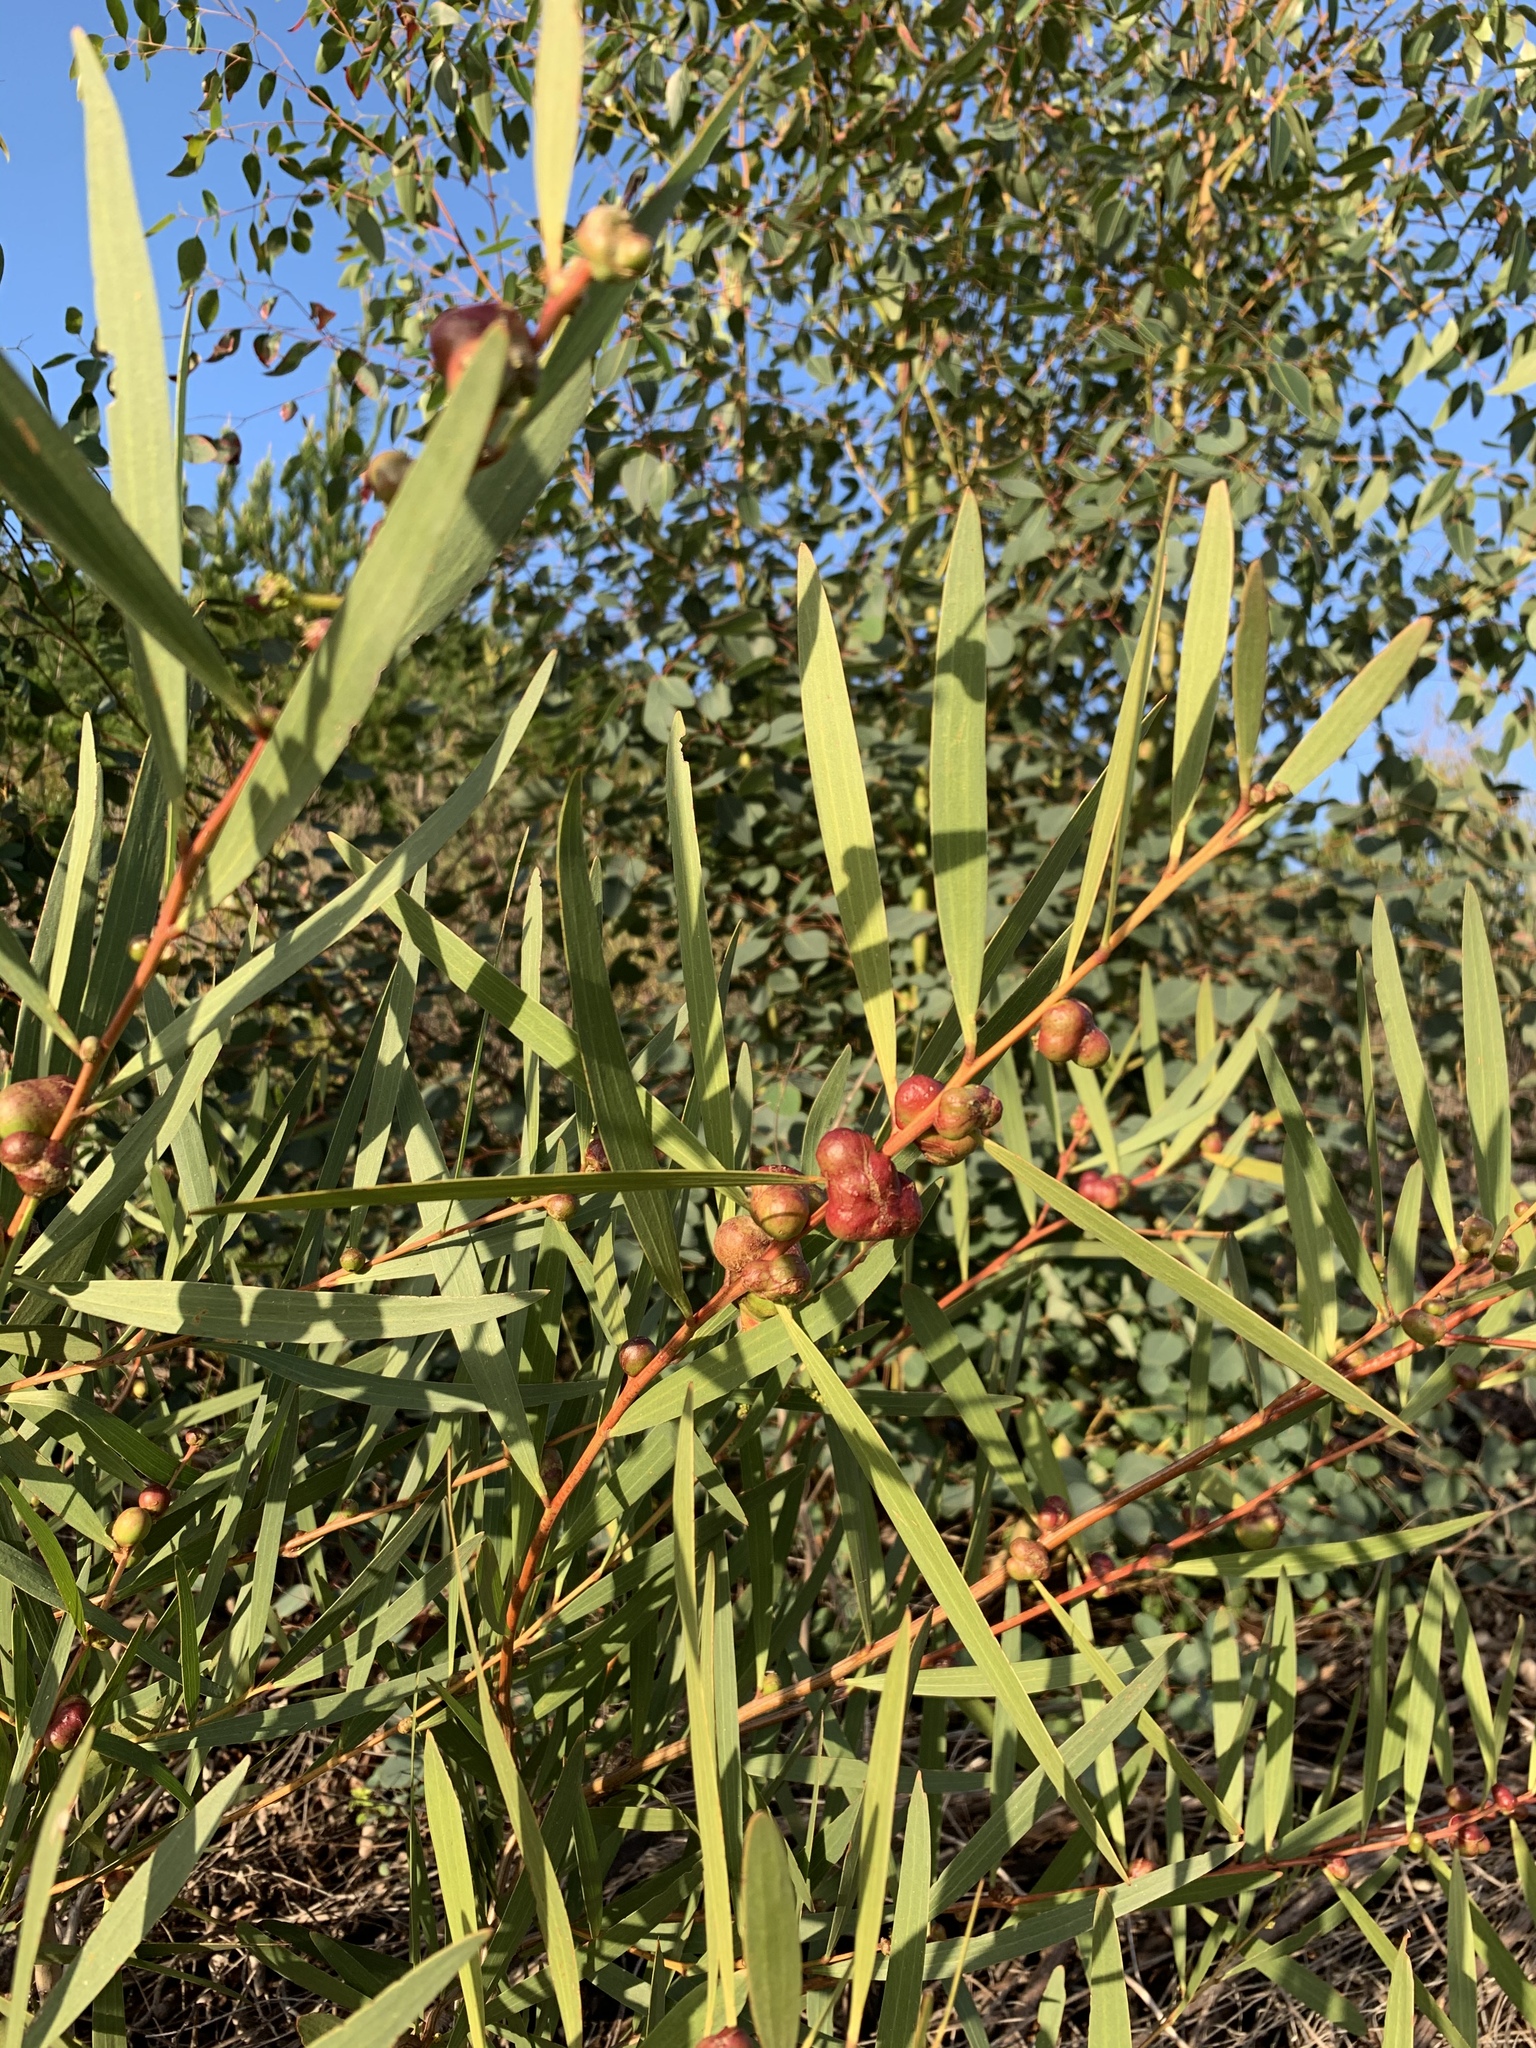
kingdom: Plantae
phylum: Tracheophyta
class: Magnoliopsida
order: Fabales
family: Fabaceae
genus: Acacia
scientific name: Acacia longifolia
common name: Sydney golden wattle
